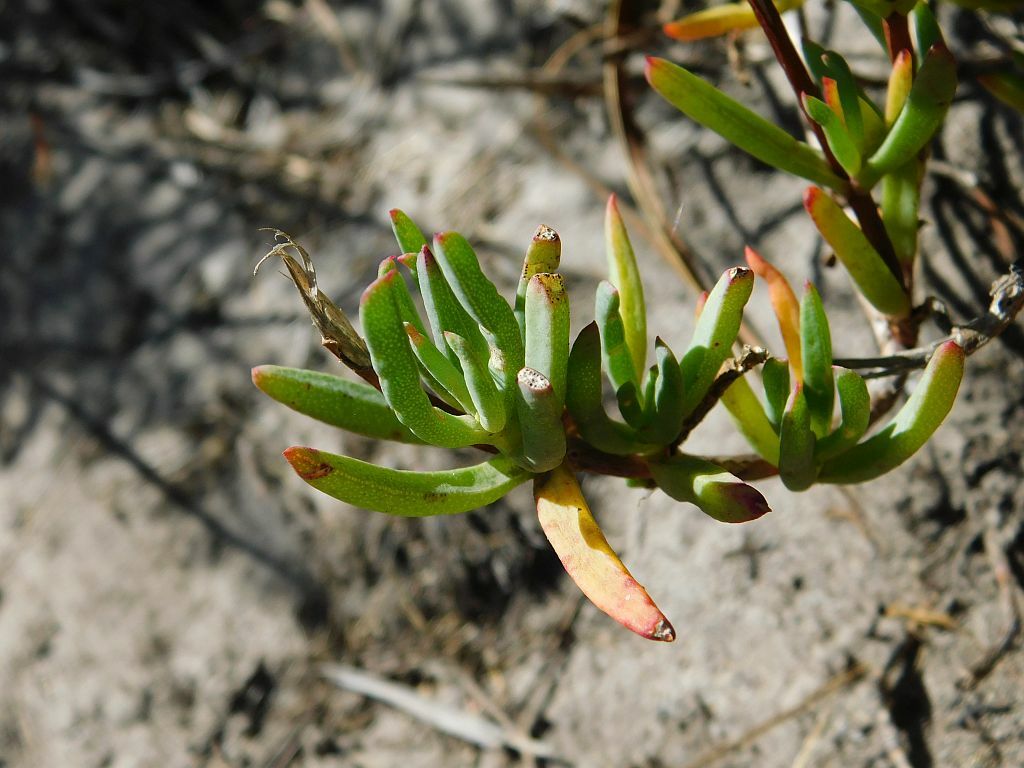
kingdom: Plantae
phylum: Tracheophyta
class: Magnoliopsida
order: Caryophyllales
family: Aizoaceae
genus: Lampranthus
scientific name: Lampranthus falcatus
